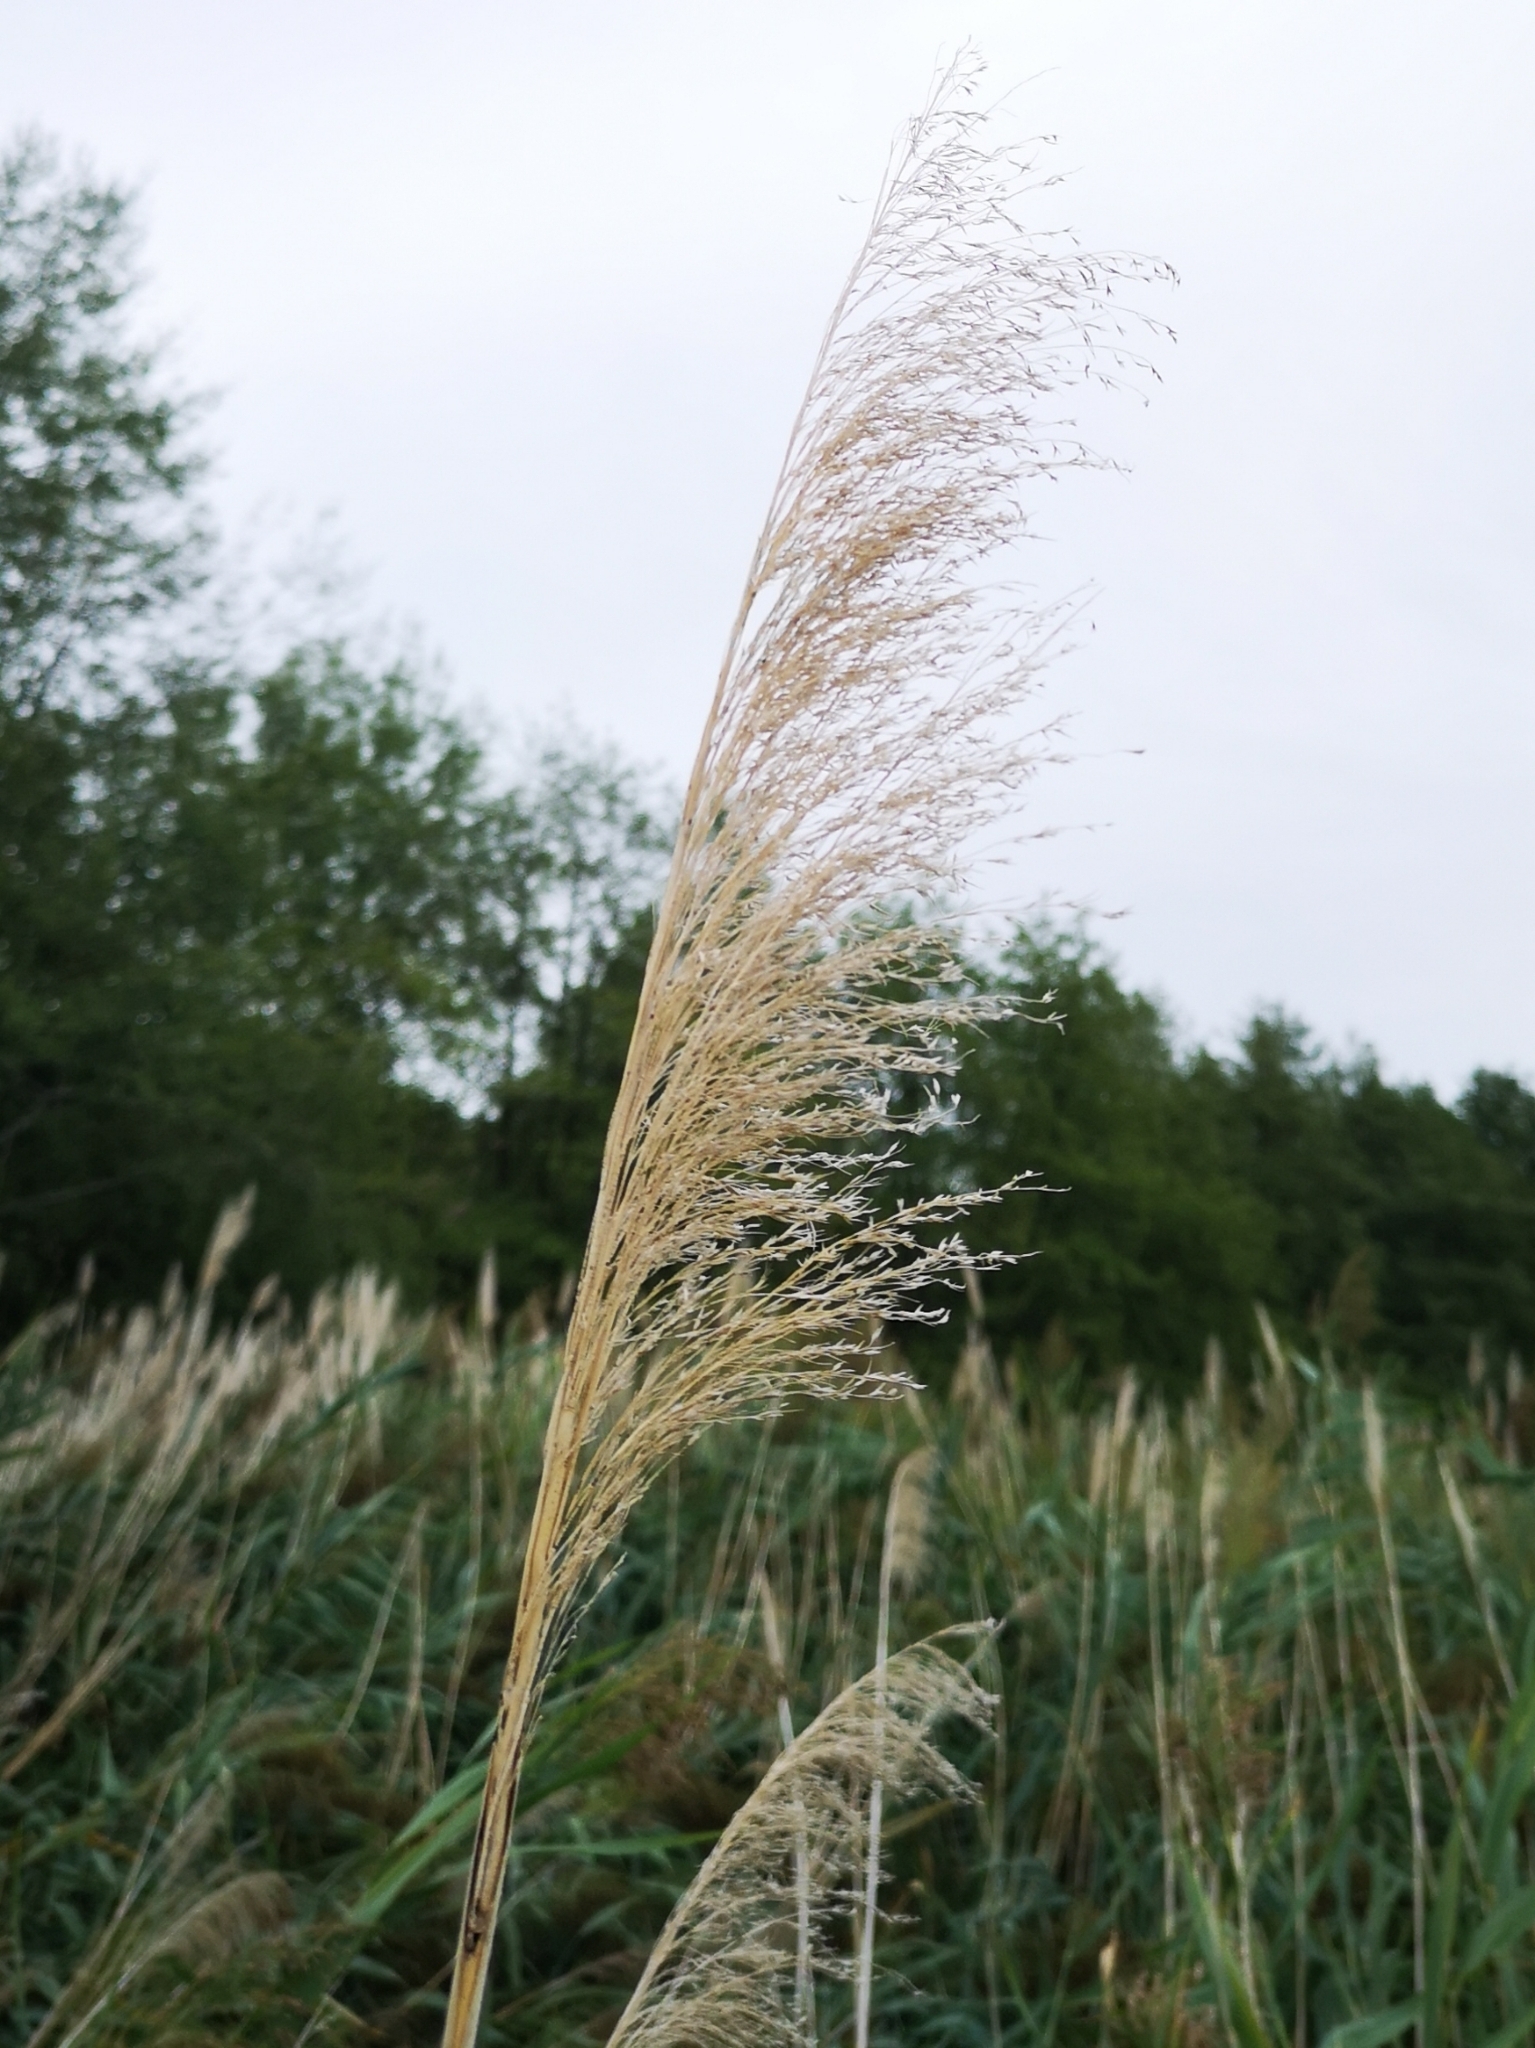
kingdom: Plantae
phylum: Tracheophyta
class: Liliopsida
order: Poales
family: Poaceae
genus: Phragmites
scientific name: Phragmites australis
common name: Common reed
